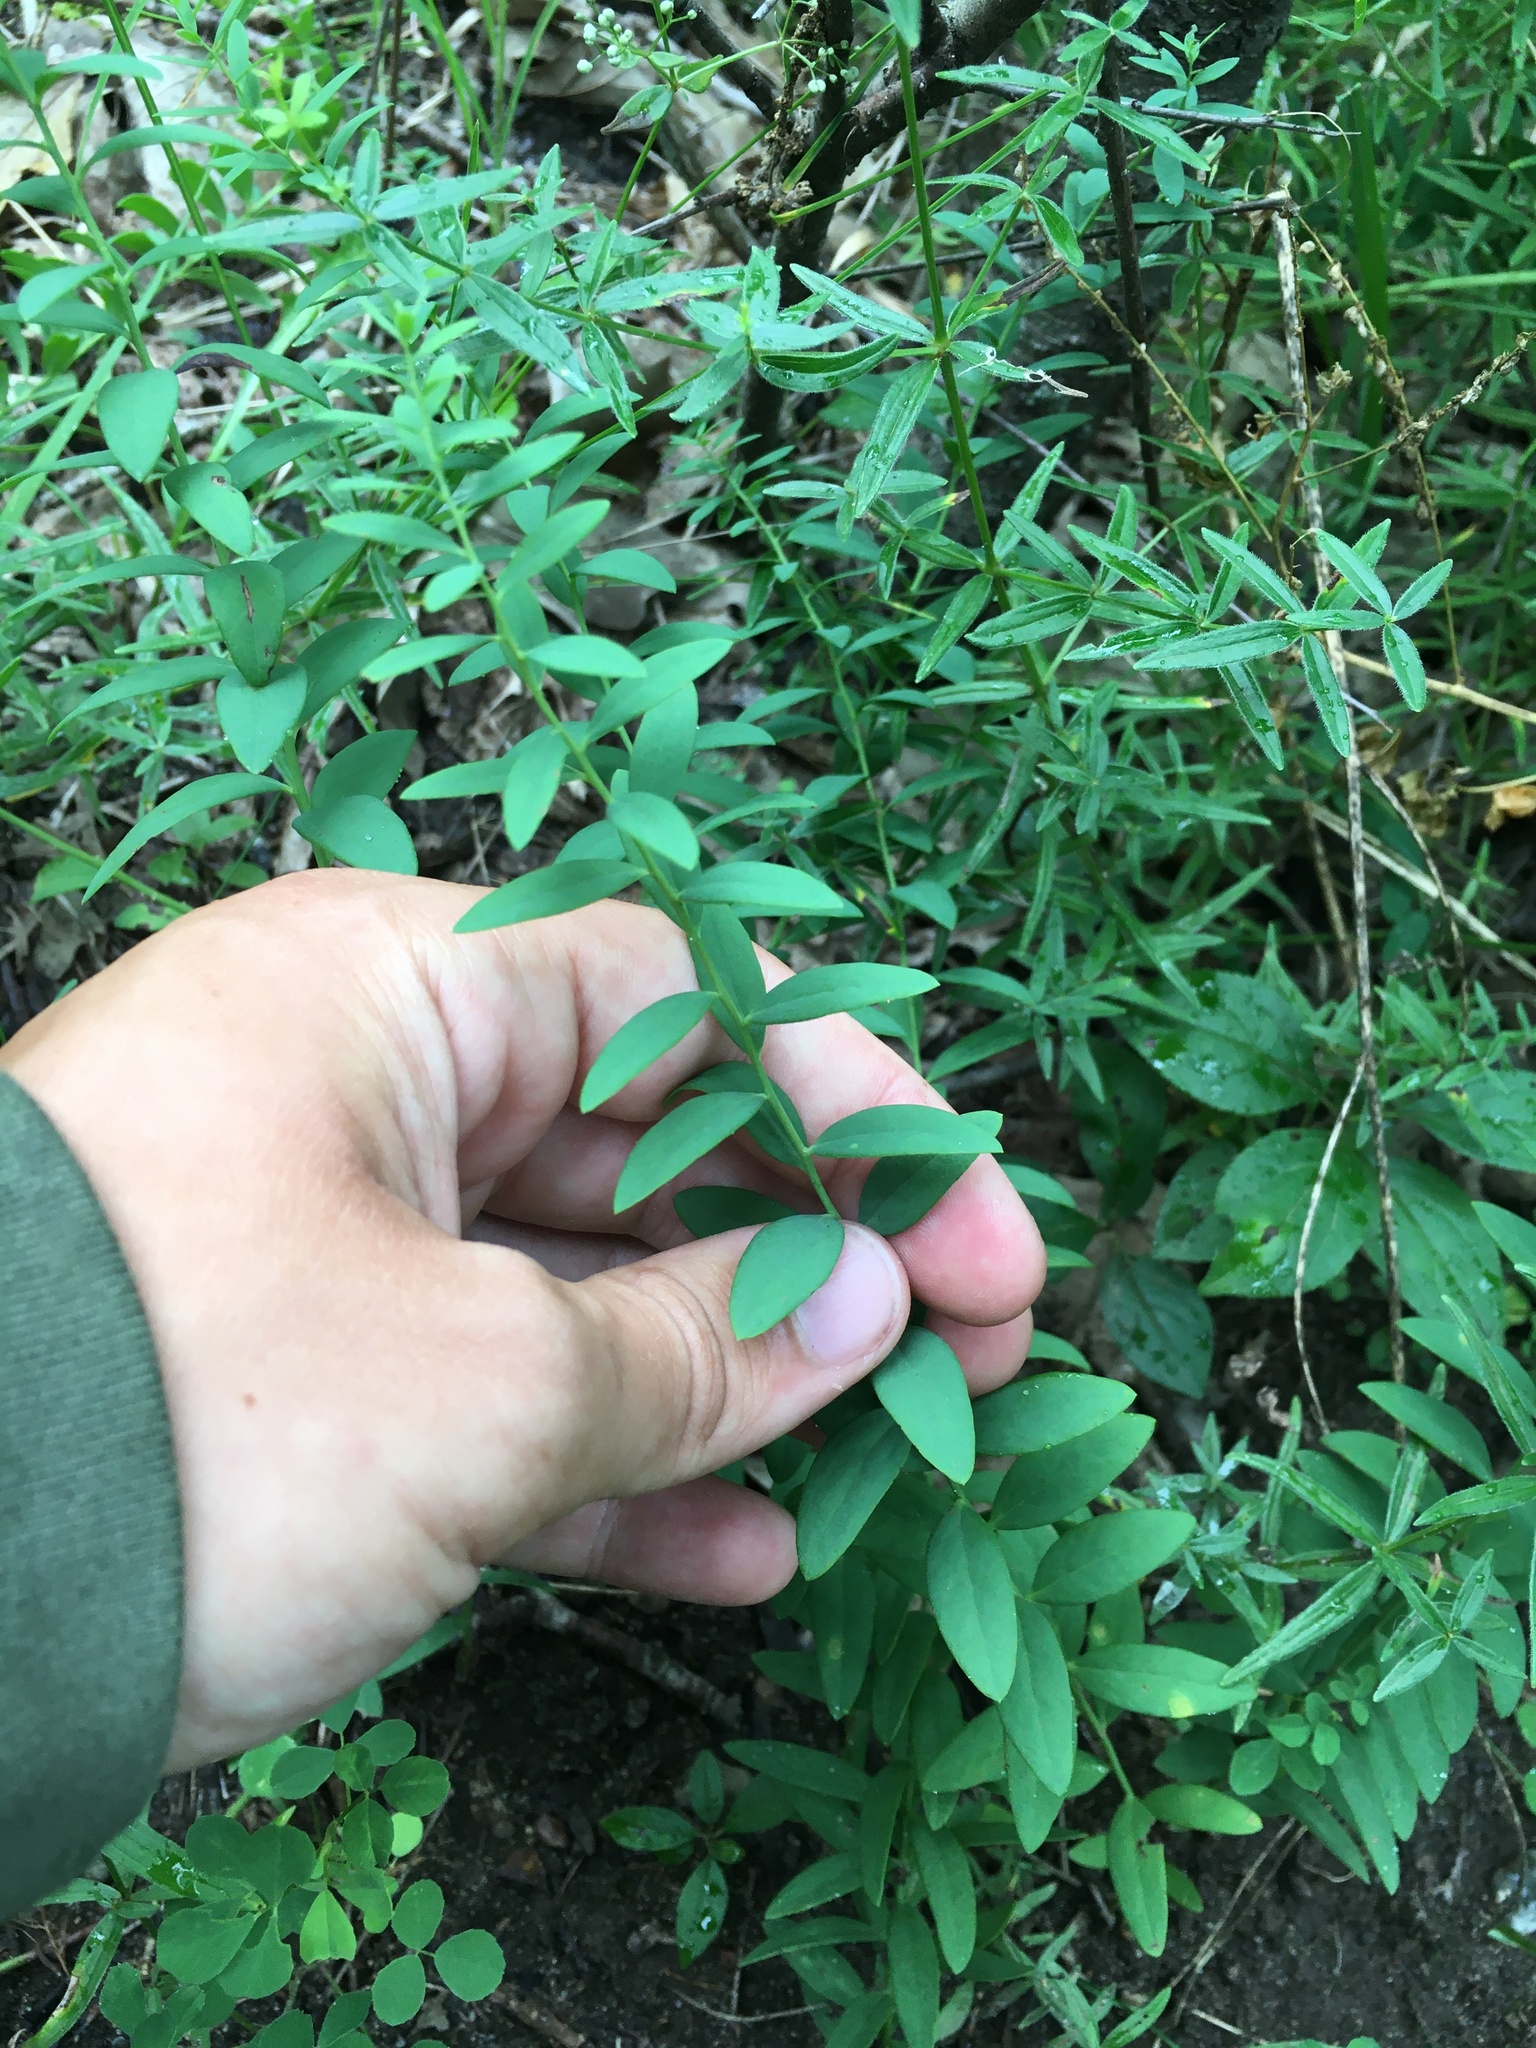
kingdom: Plantae
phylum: Tracheophyta
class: Magnoliopsida
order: Santalales
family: Comandraceae
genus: Comandra
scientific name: Comandra umbellata
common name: Bastard toadflax
